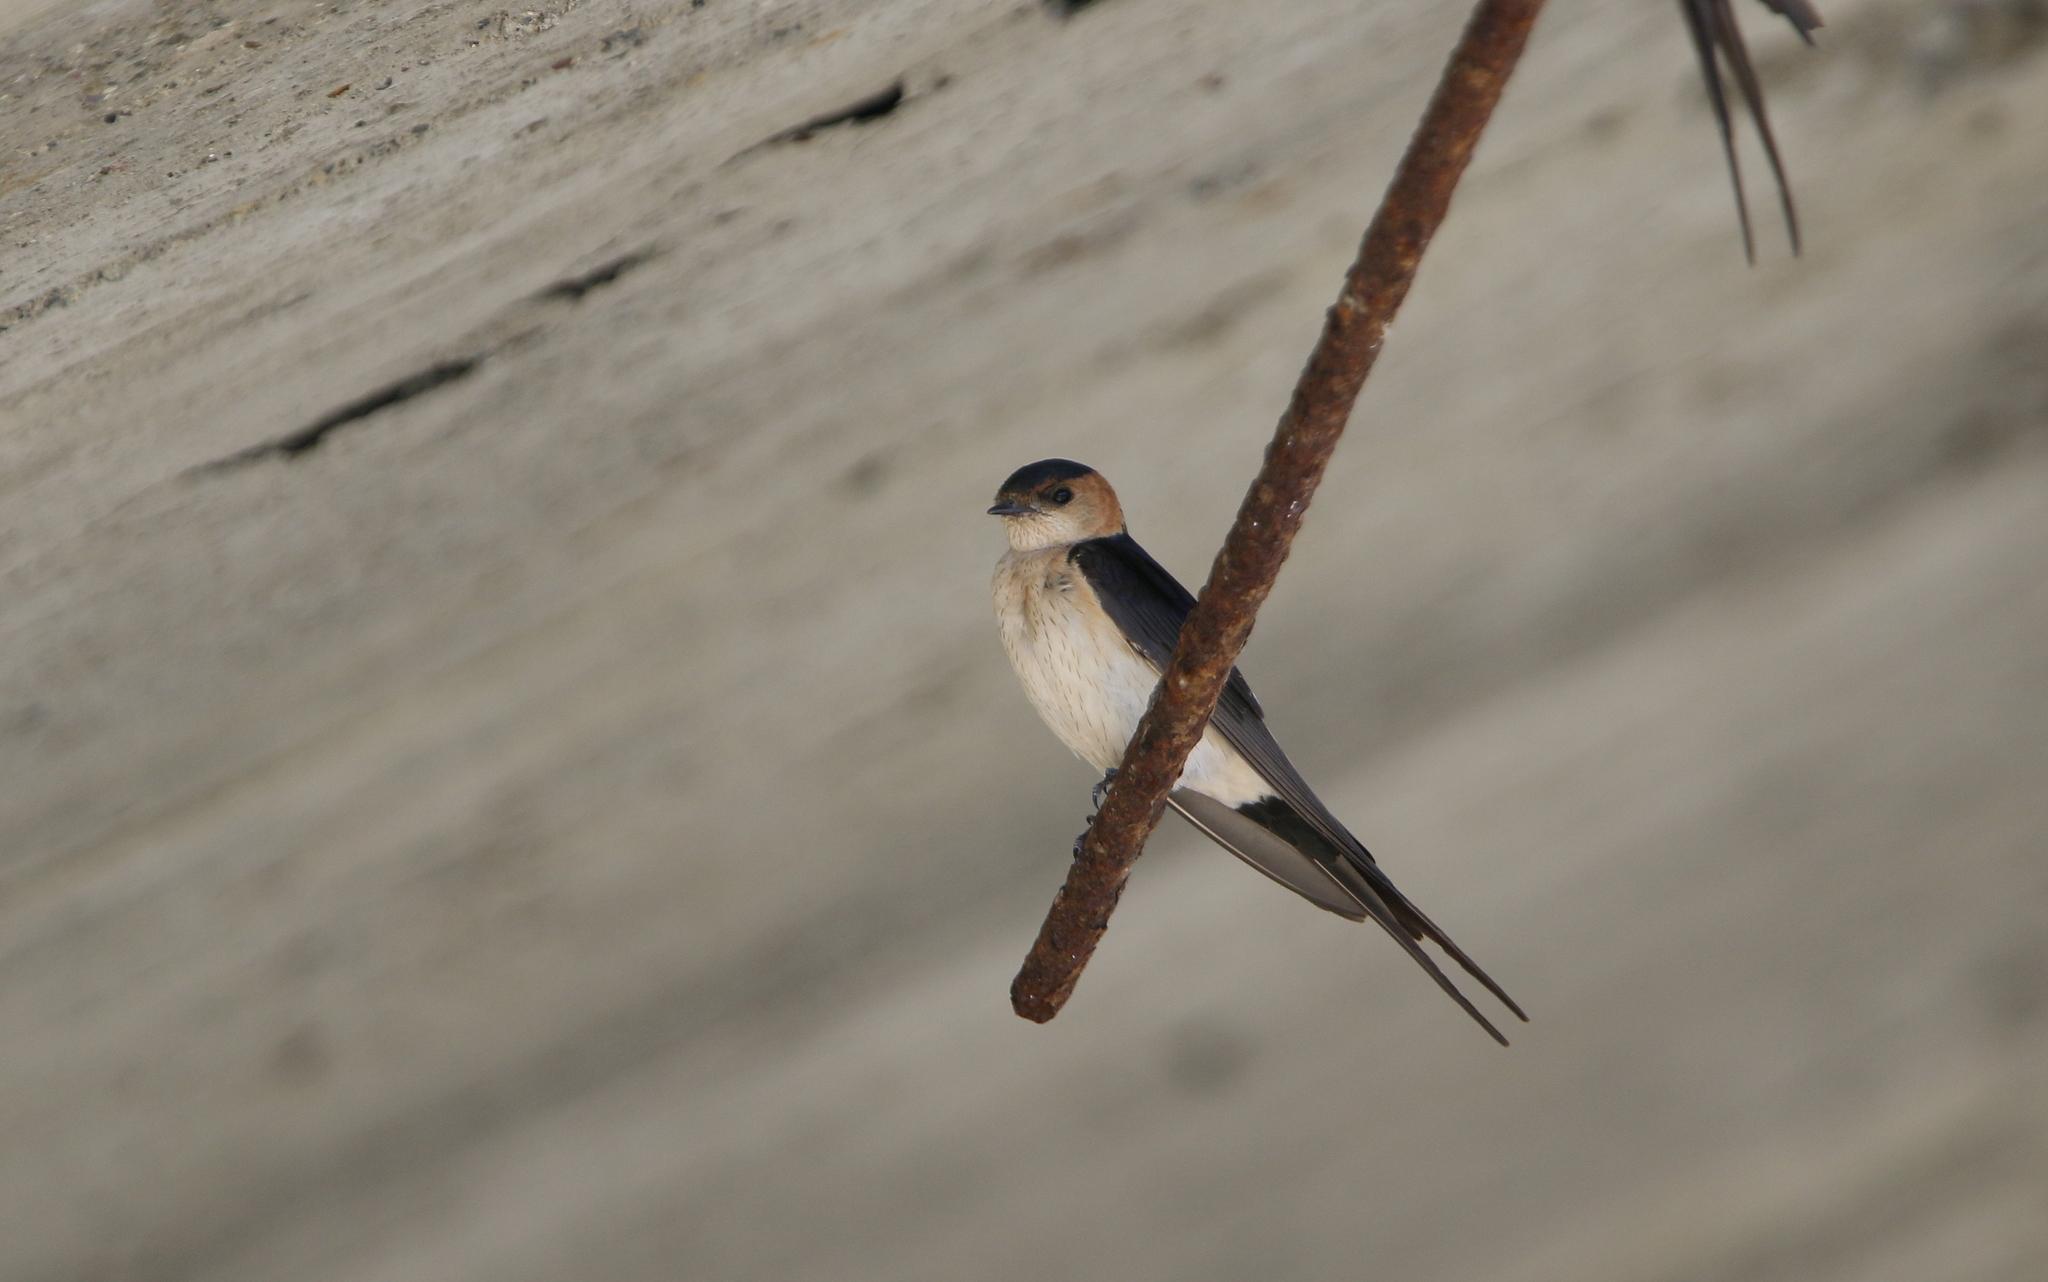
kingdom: Animalia
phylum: Chordata
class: Aves
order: Passeriformes
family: Hirundinidae
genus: Cecropis
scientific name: Cecropis daurica
